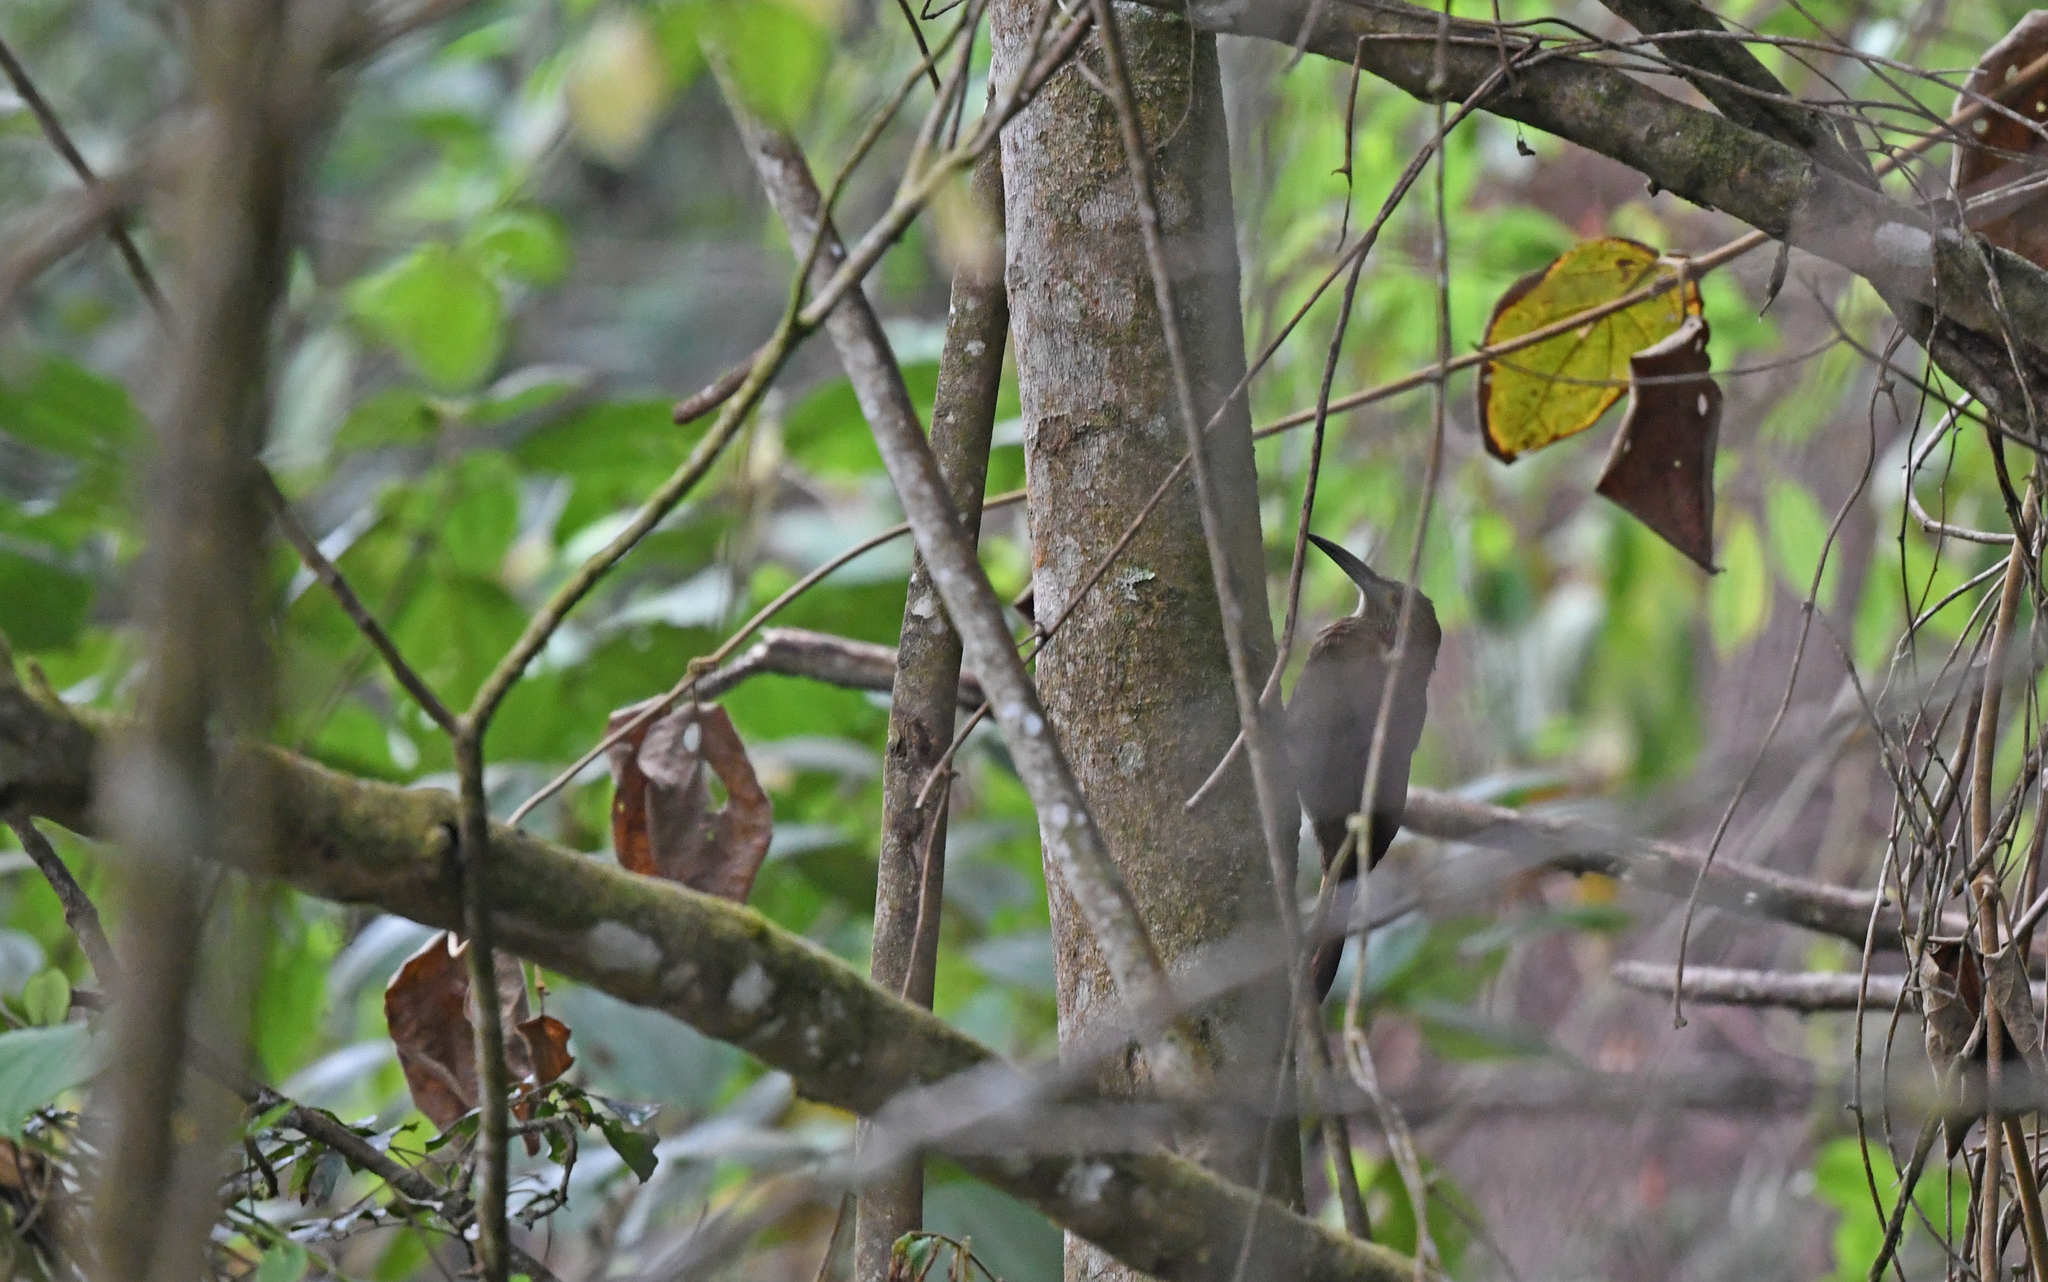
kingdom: Animalia
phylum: Chordata
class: Aves
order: Passeriformes
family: Furnariidae
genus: Xiphocolaptes
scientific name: Xiphocolaptes promeropirhynchus
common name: Strong-billed woodcreeper
